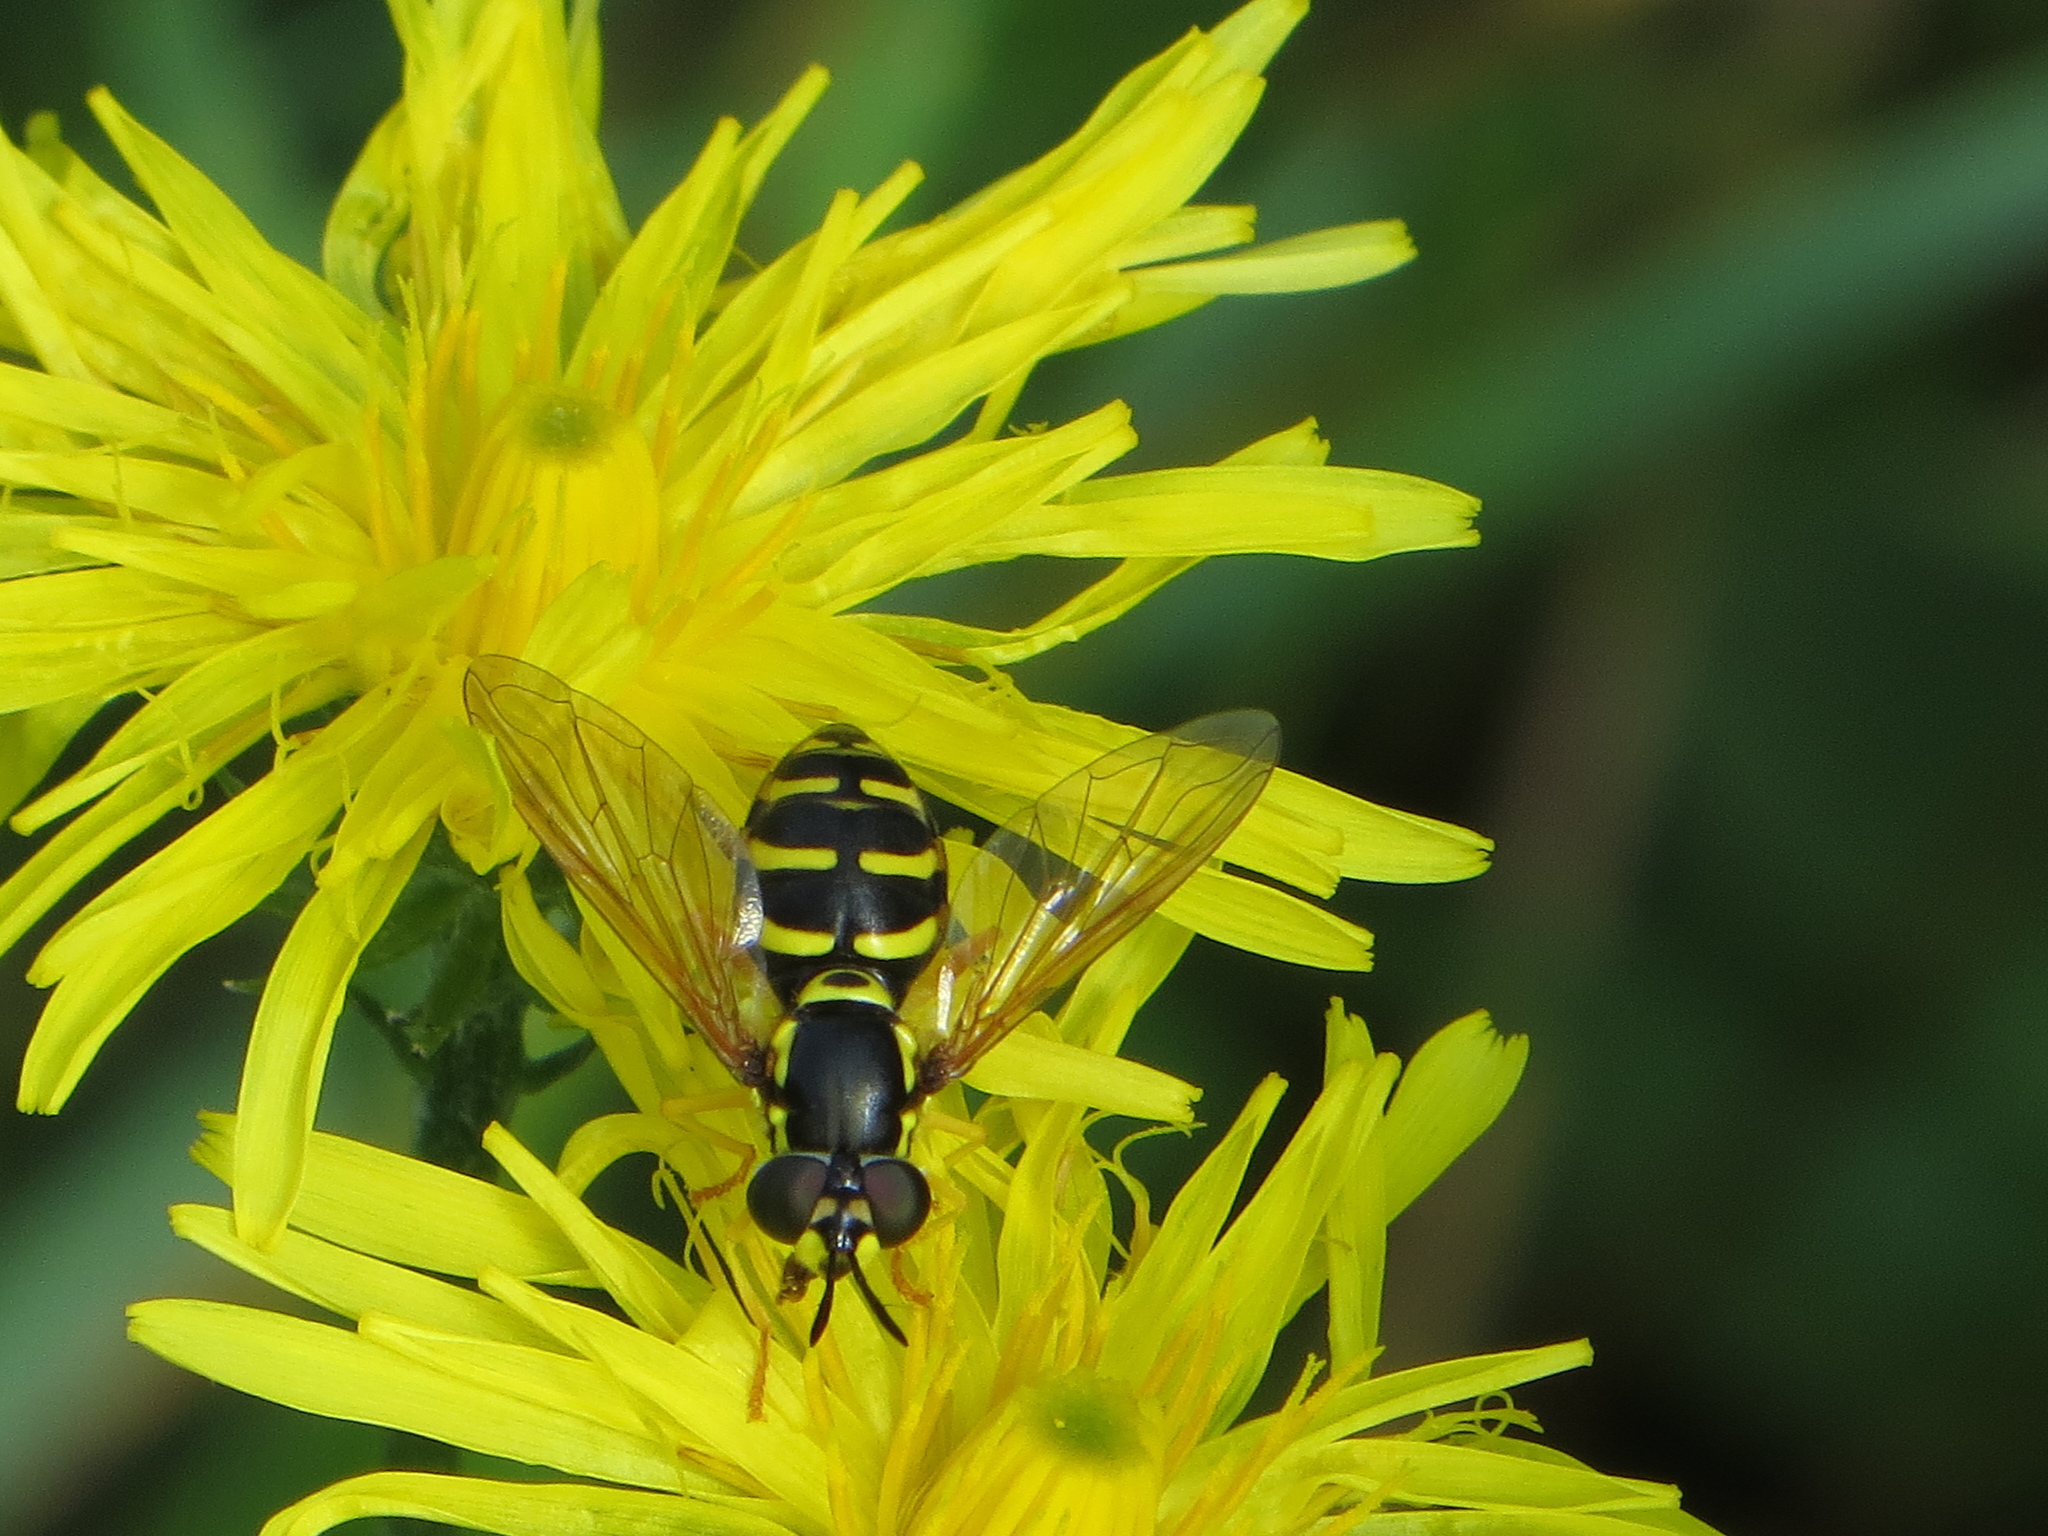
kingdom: Animalia
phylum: Arthropoda
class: Insecta
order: Diptera
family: Syrphidae
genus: Chrysotoxum
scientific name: Chrysotoxum cautum
